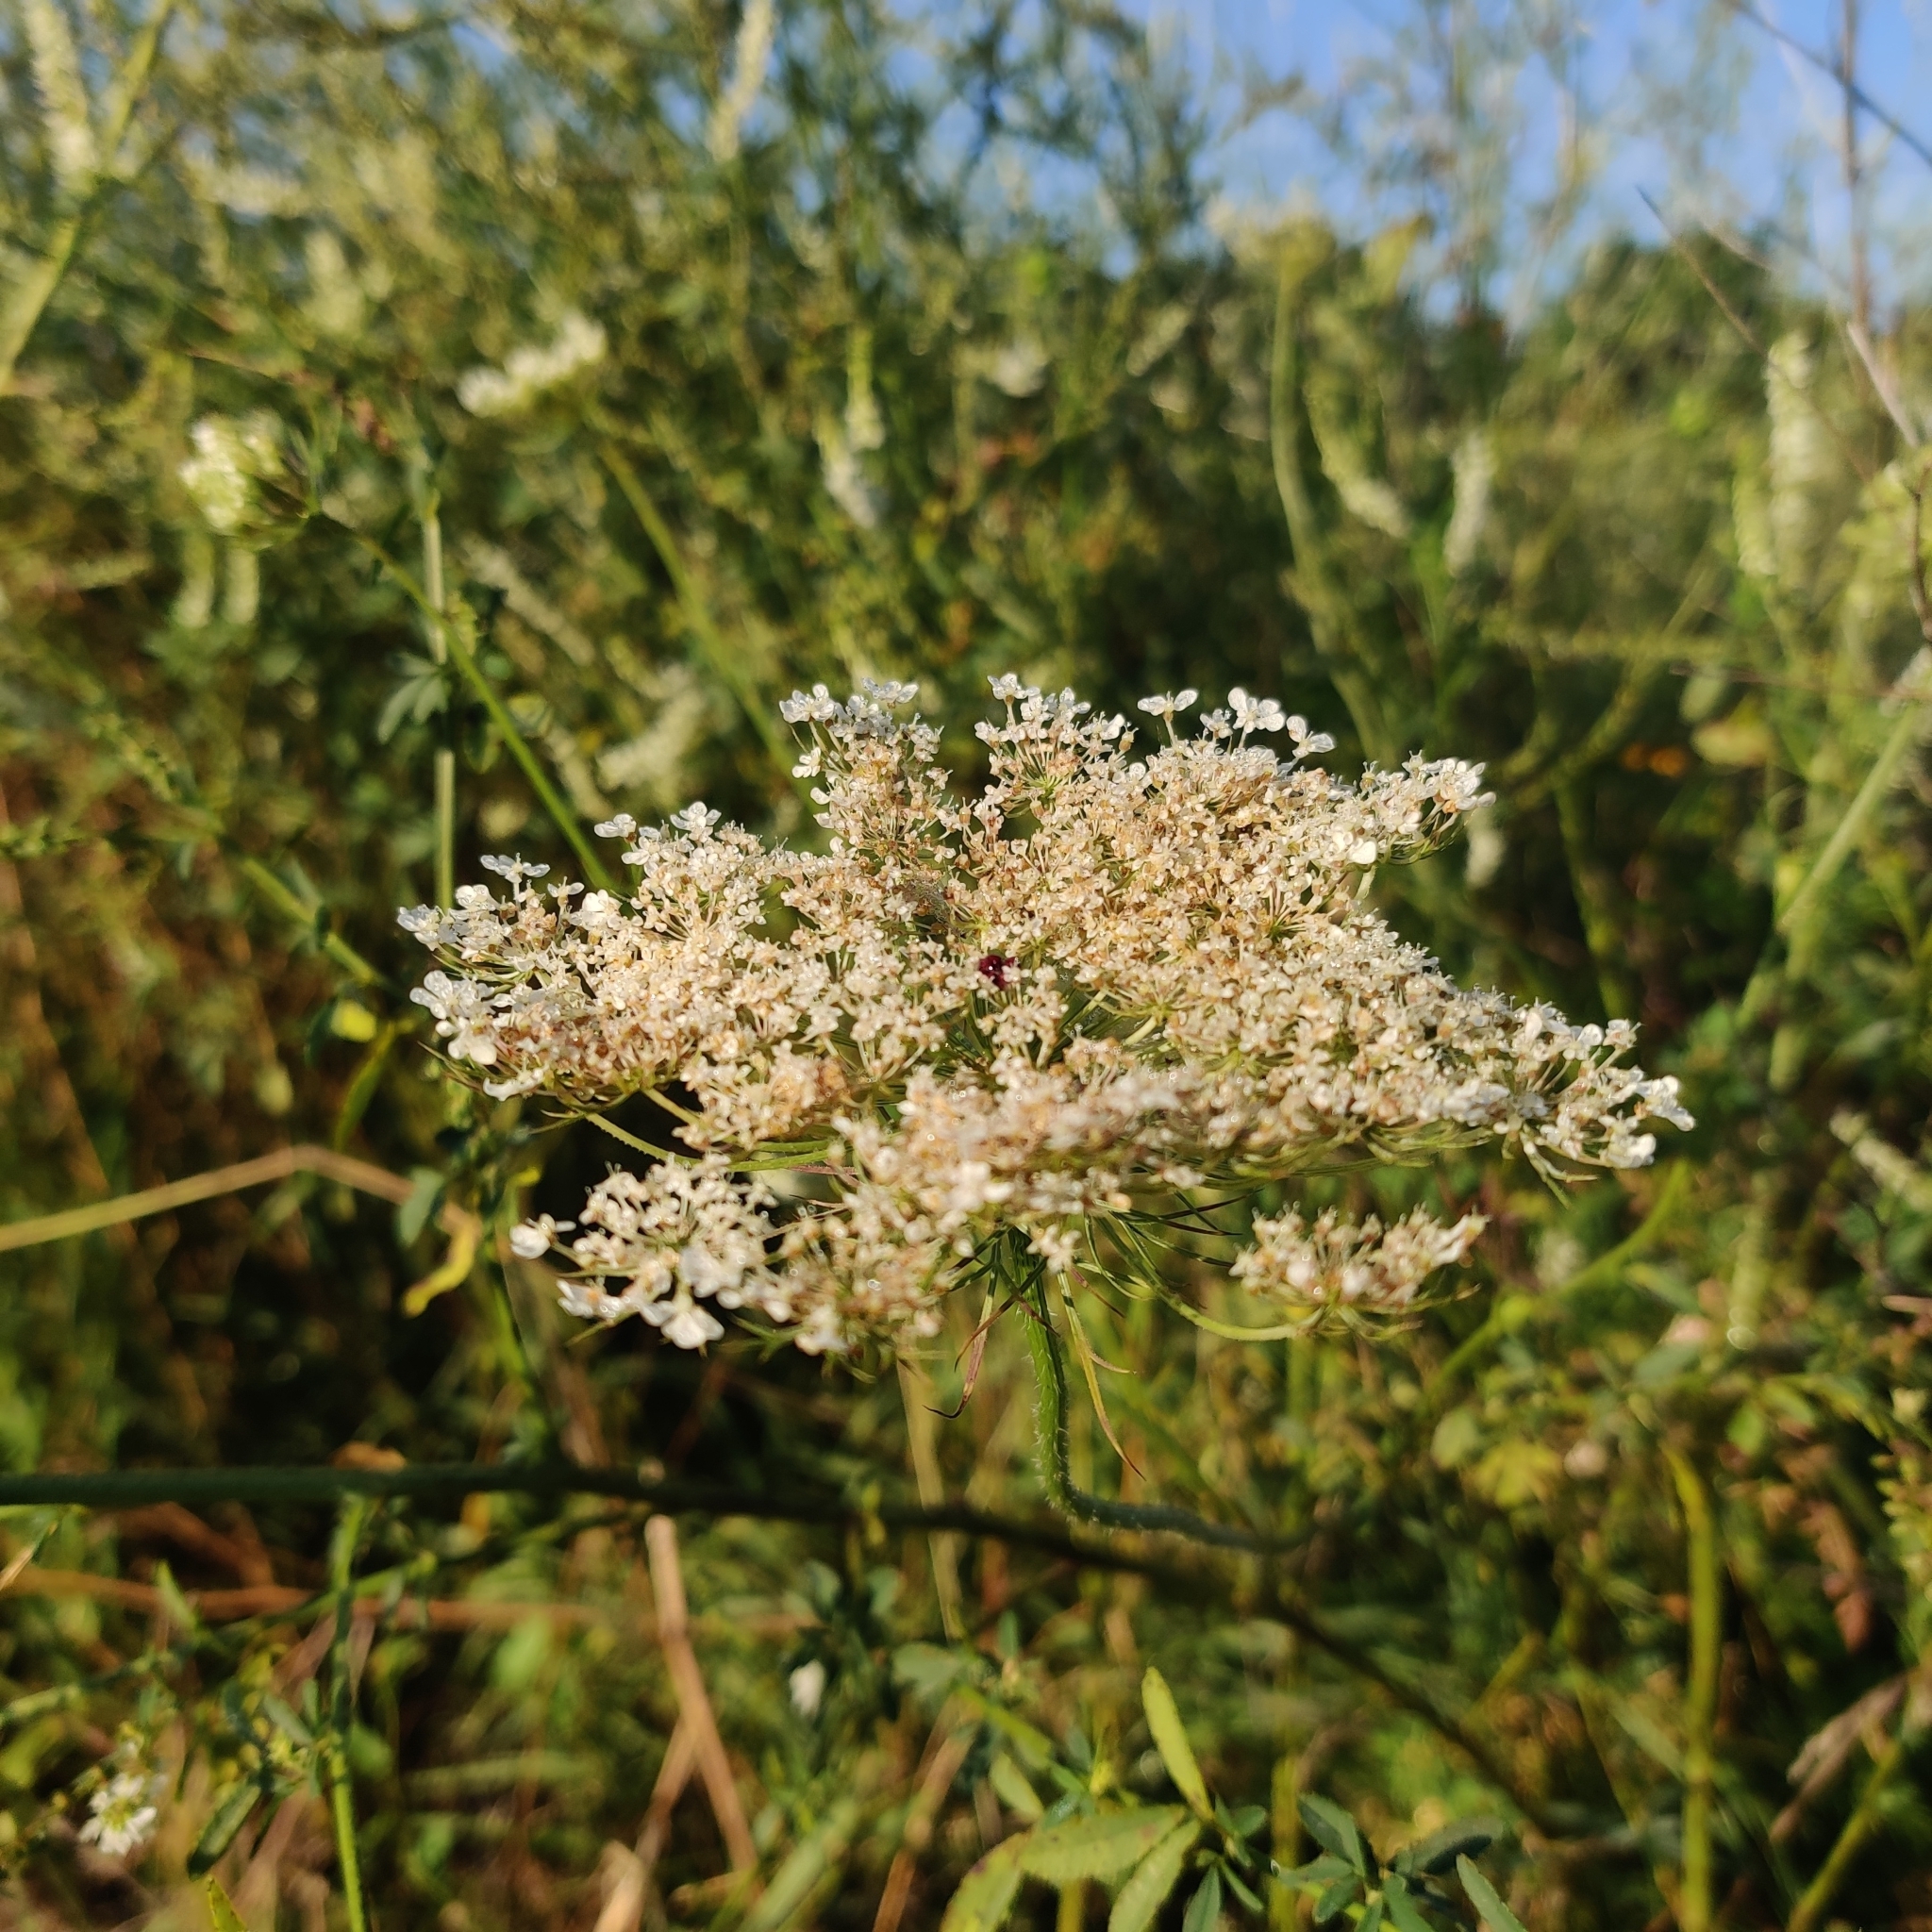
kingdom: Plantae
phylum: Tracheophyta
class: Magnoliopsida
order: Apiales
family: Apiaceae
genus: Daucus
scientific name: Daucus carota
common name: Wild carrot
